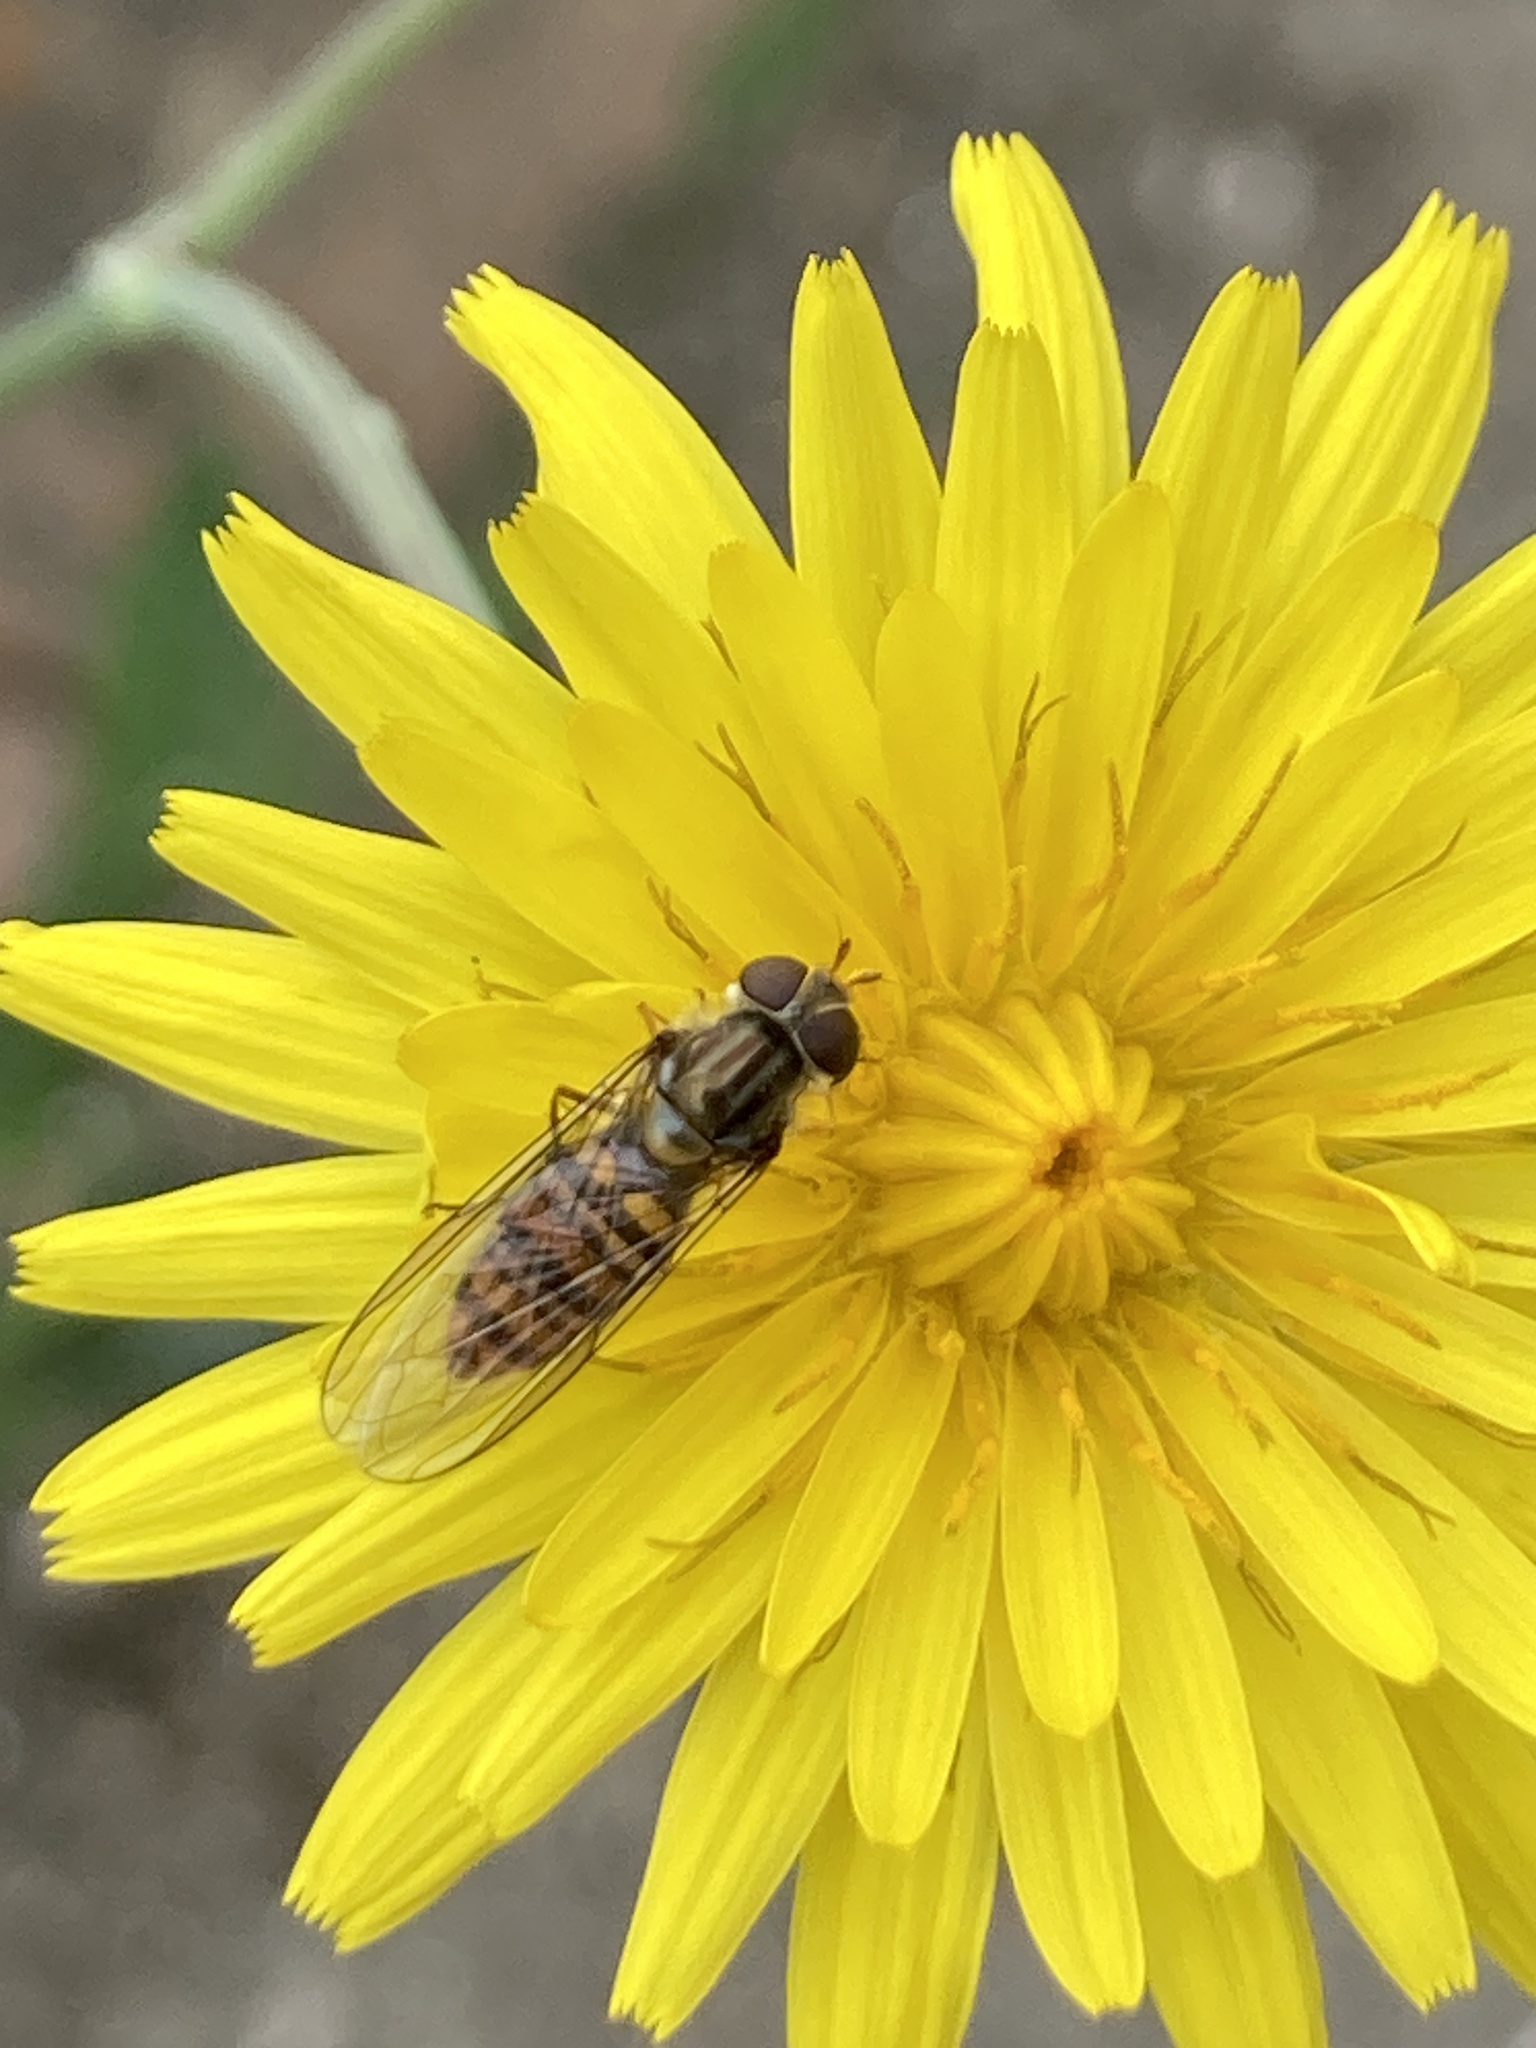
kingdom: Animalia
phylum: Arthropoda
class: Insecta
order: Diptera
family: Syrphidae
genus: Episyrphus
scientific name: Episyrphus balteatus
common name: Marmalade hoverfly
